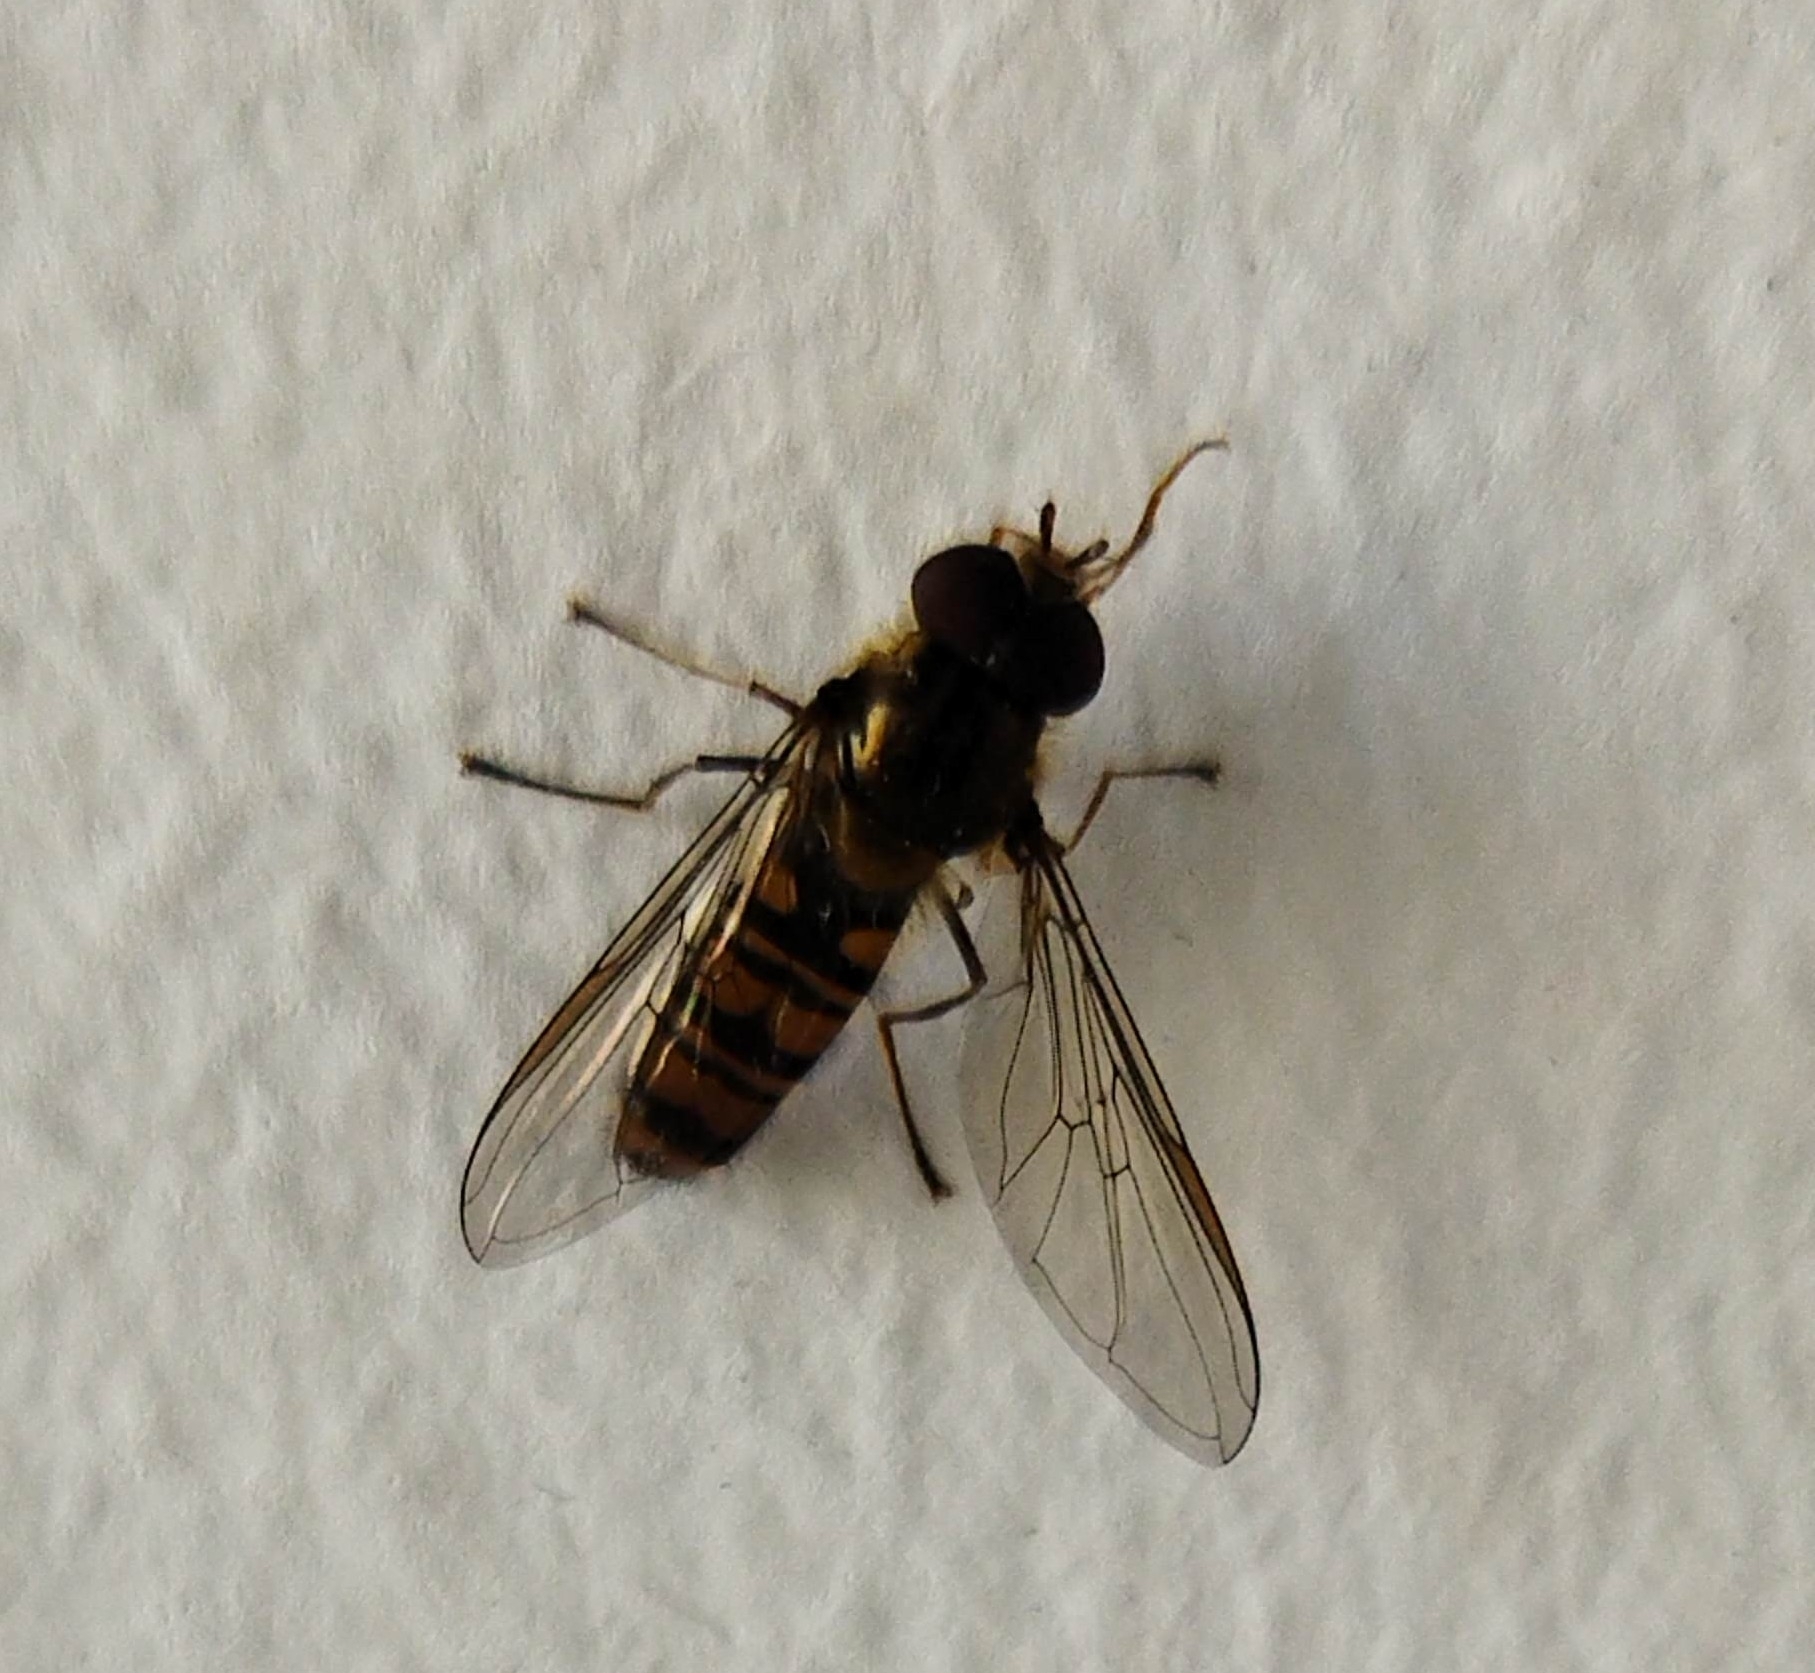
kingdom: Animalia
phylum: Arthropoda
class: Insecta
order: Diptera
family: Syrphidae
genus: Episyrphus
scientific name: Episyrphus balteatus
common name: Marmalade hoverfly
